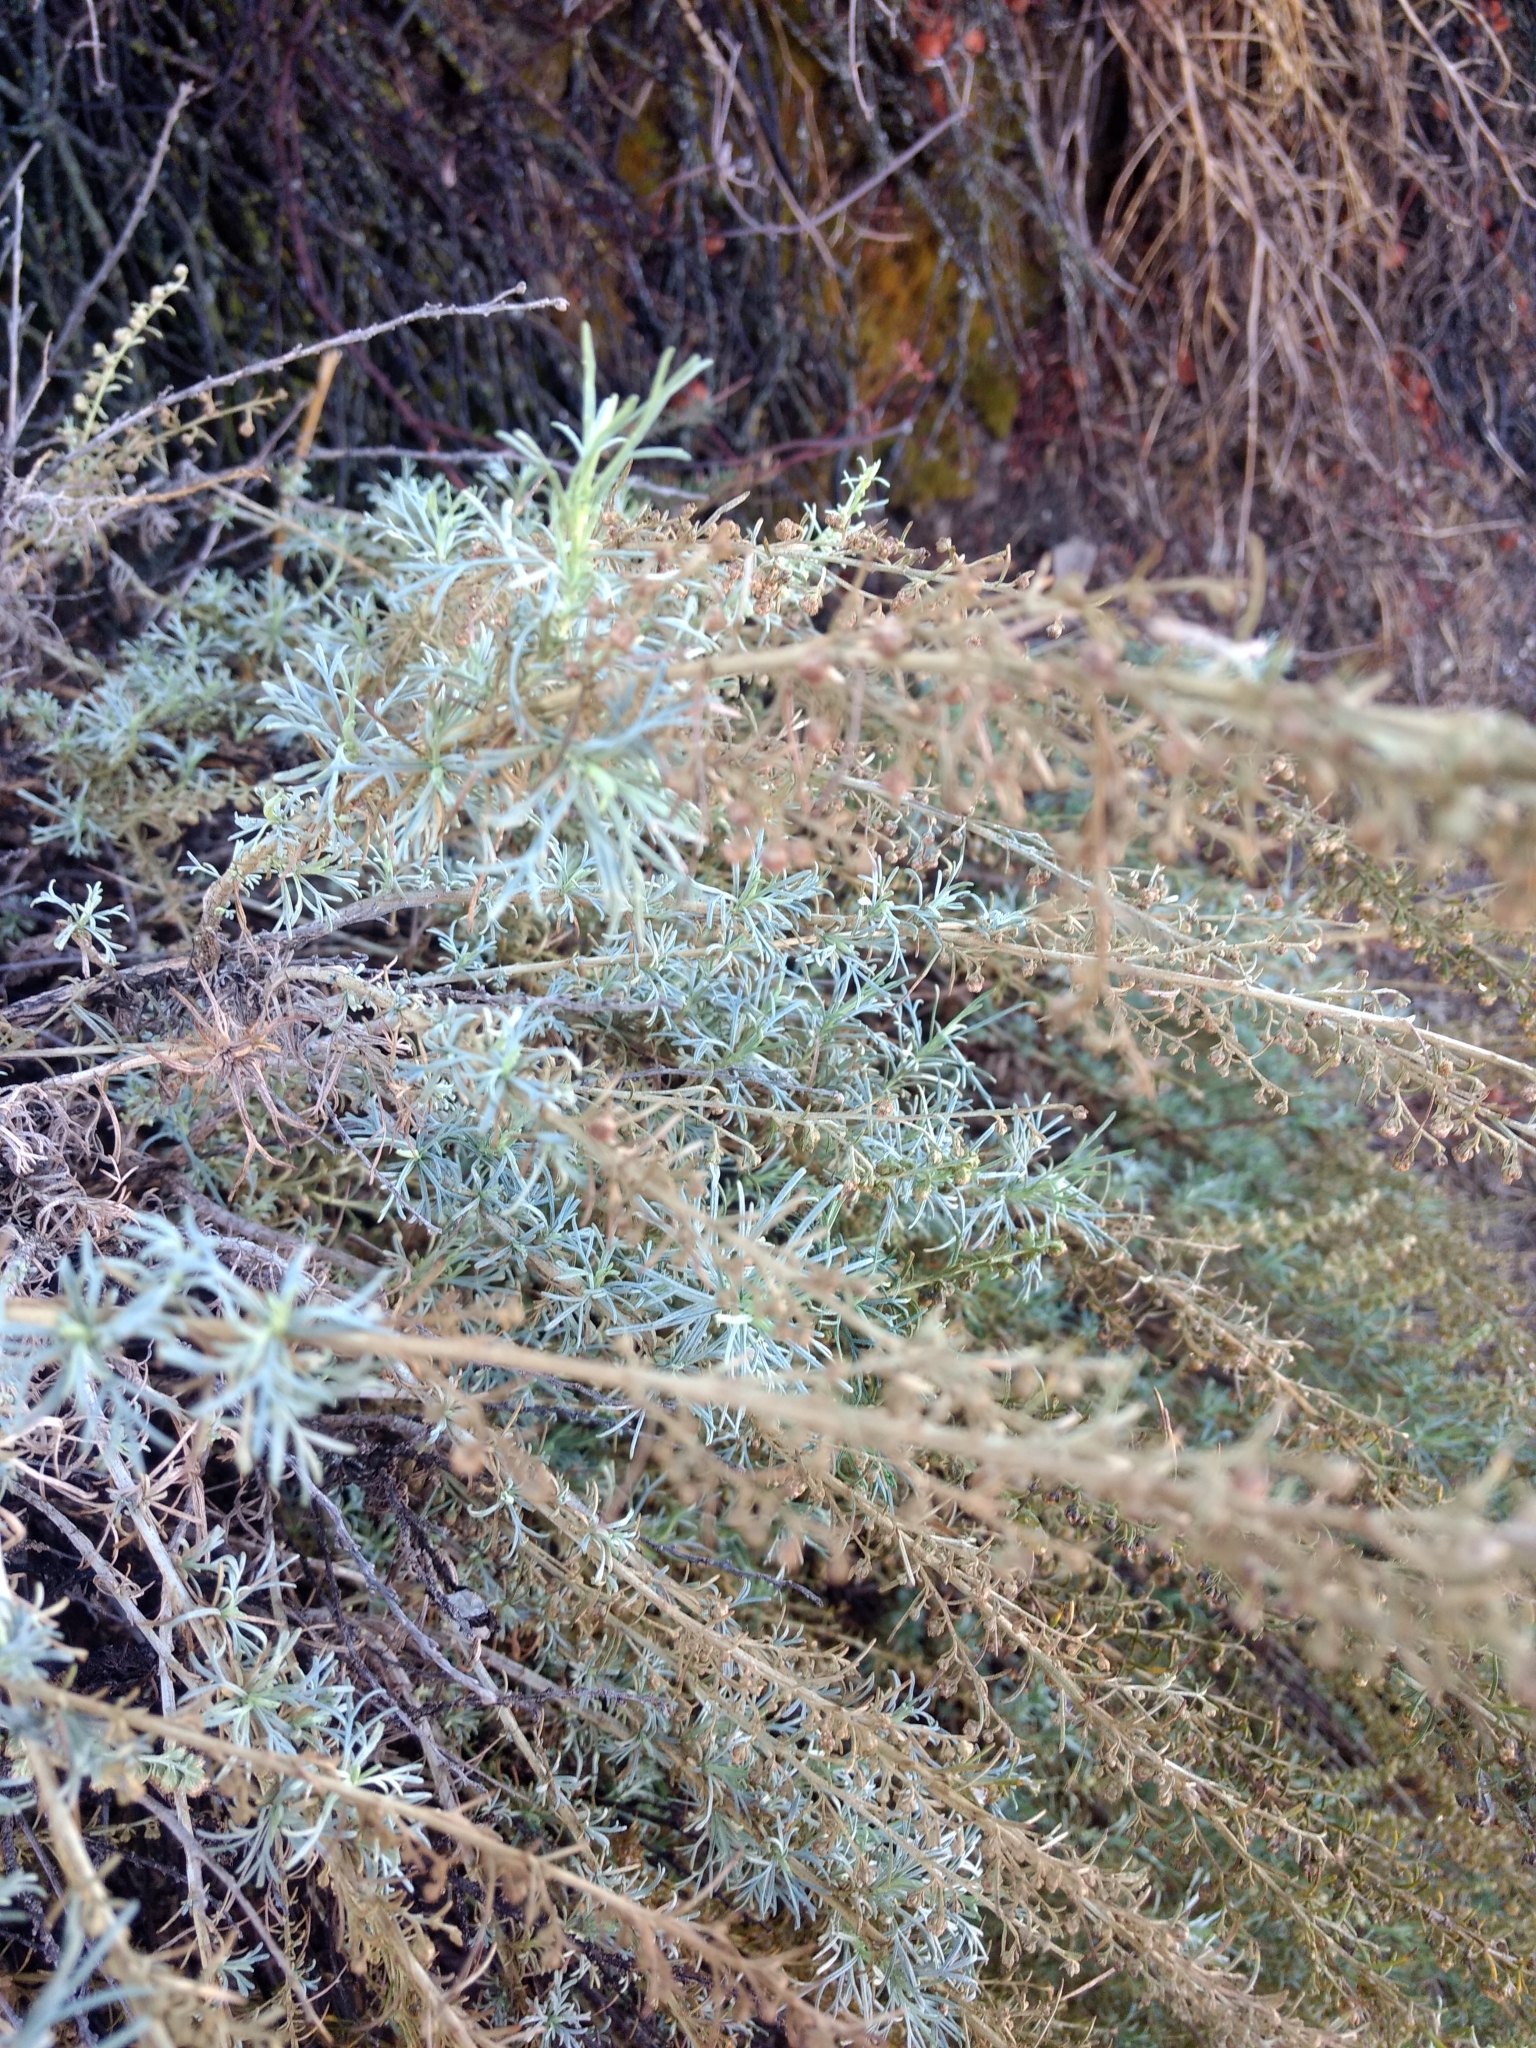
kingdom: Plantae
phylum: Tracheophyta
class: Magnoliopsida
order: Asterales
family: Asteraceae
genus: Artemisia
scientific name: Artemisia californica
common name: California sagebrush
